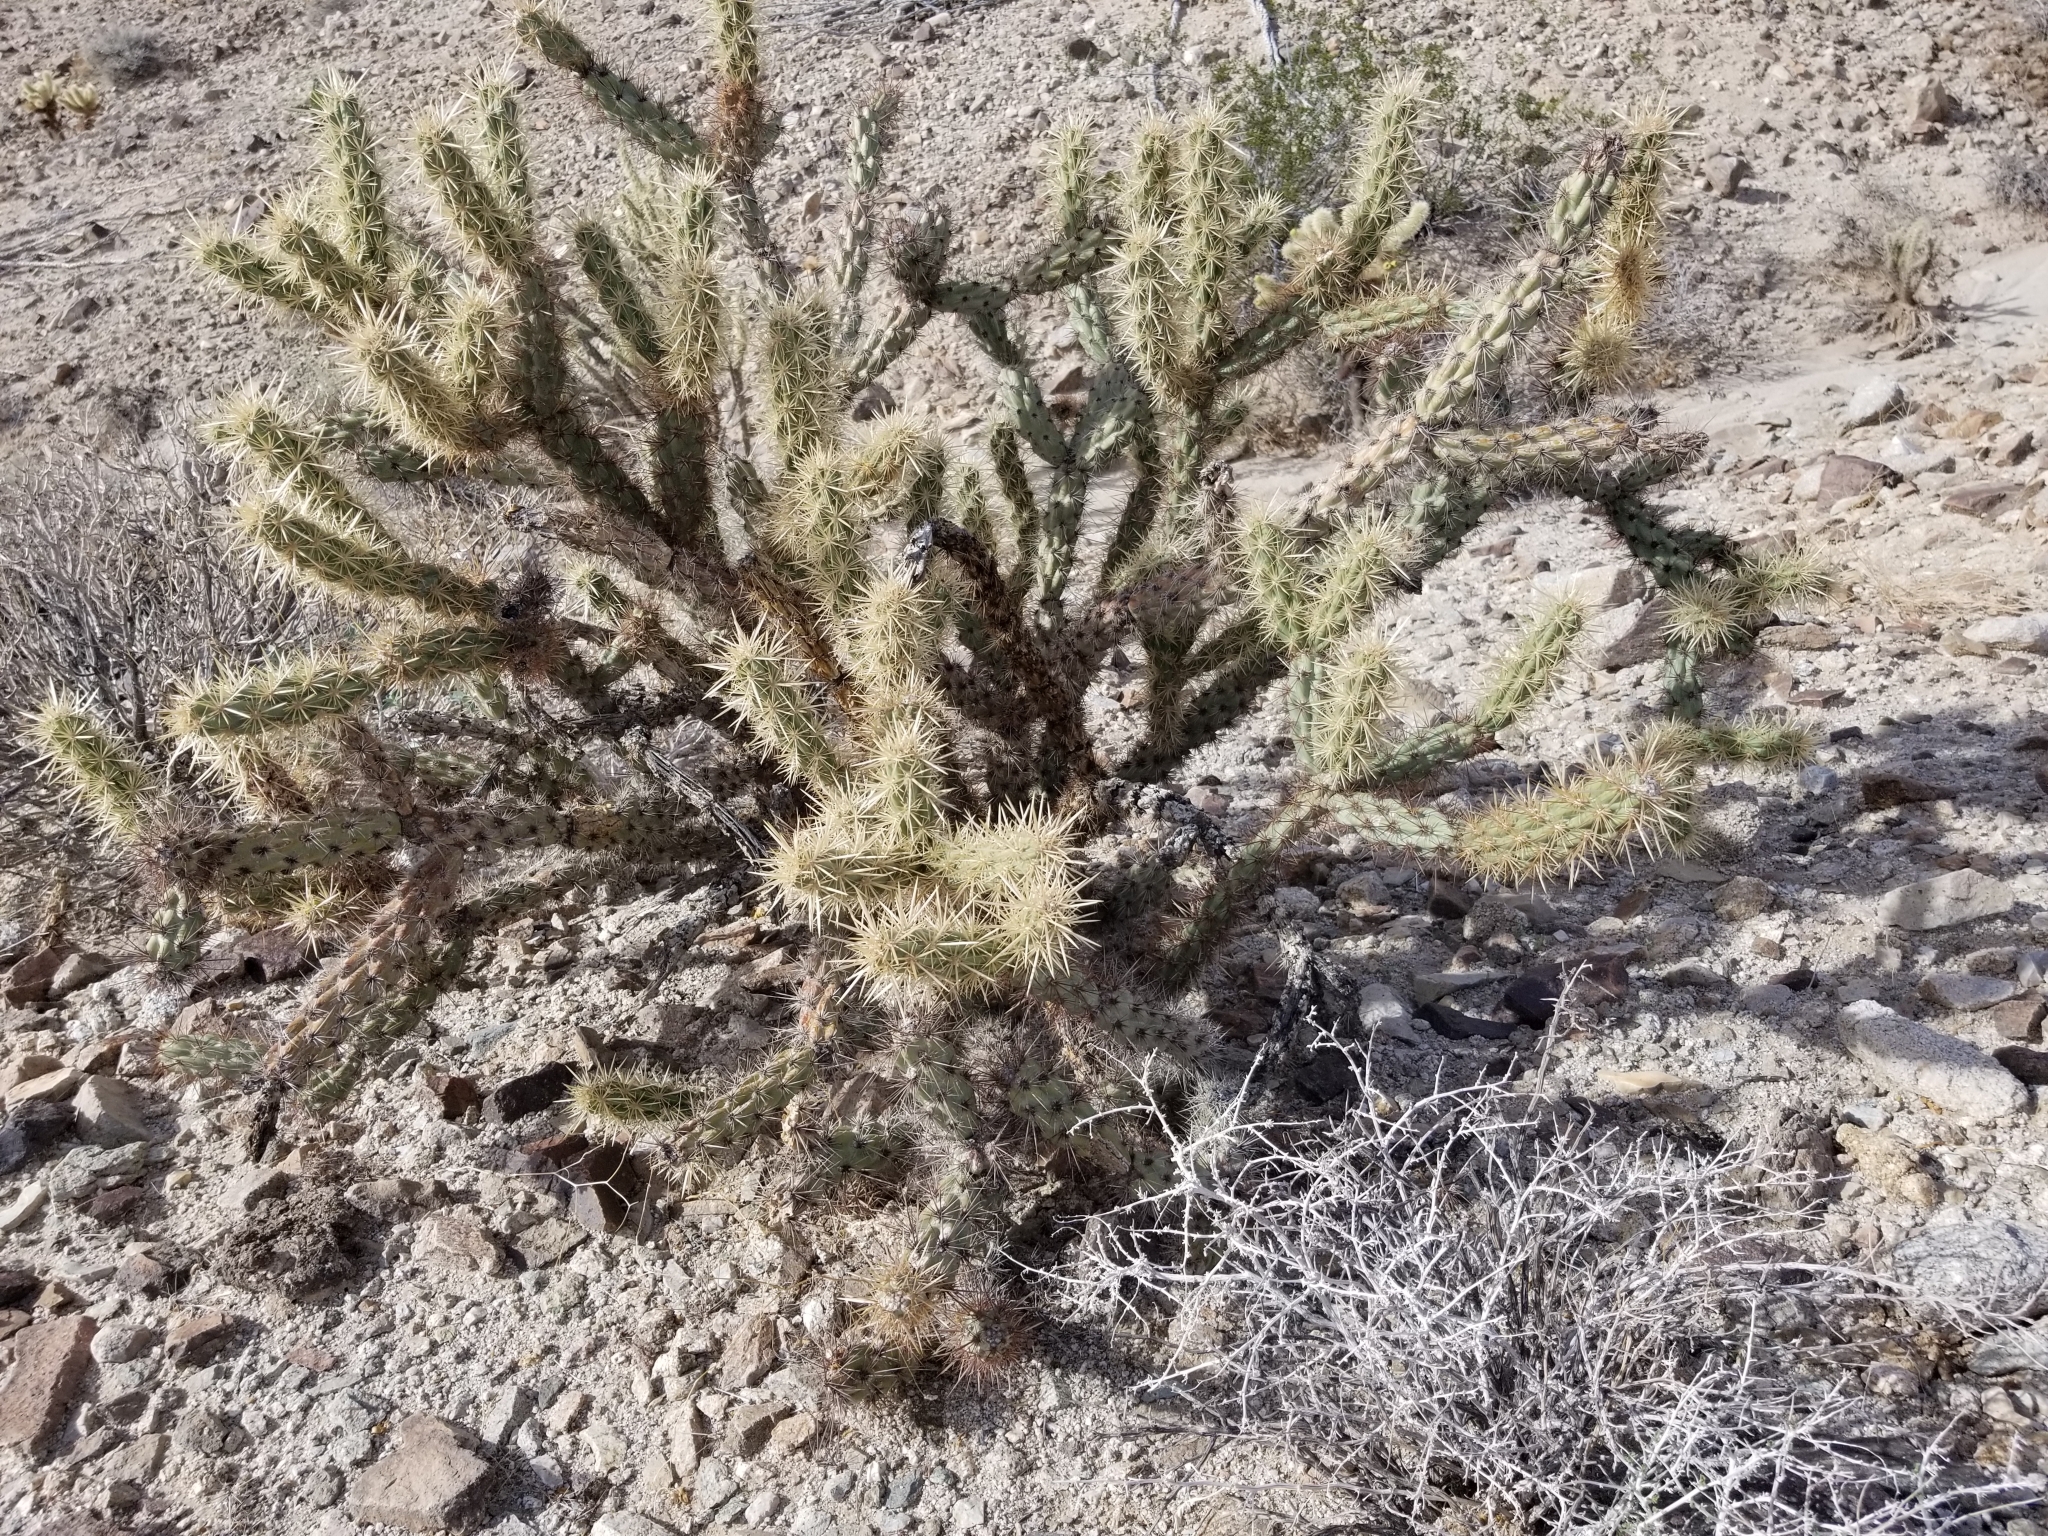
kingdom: Plantae
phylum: Tracheophyta
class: Magnoliopsida
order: Caryophyllales
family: Cactaceae
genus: Cylindropuntia
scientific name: Cylindropuntia acanthocarpa
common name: Buckhorn cholla
